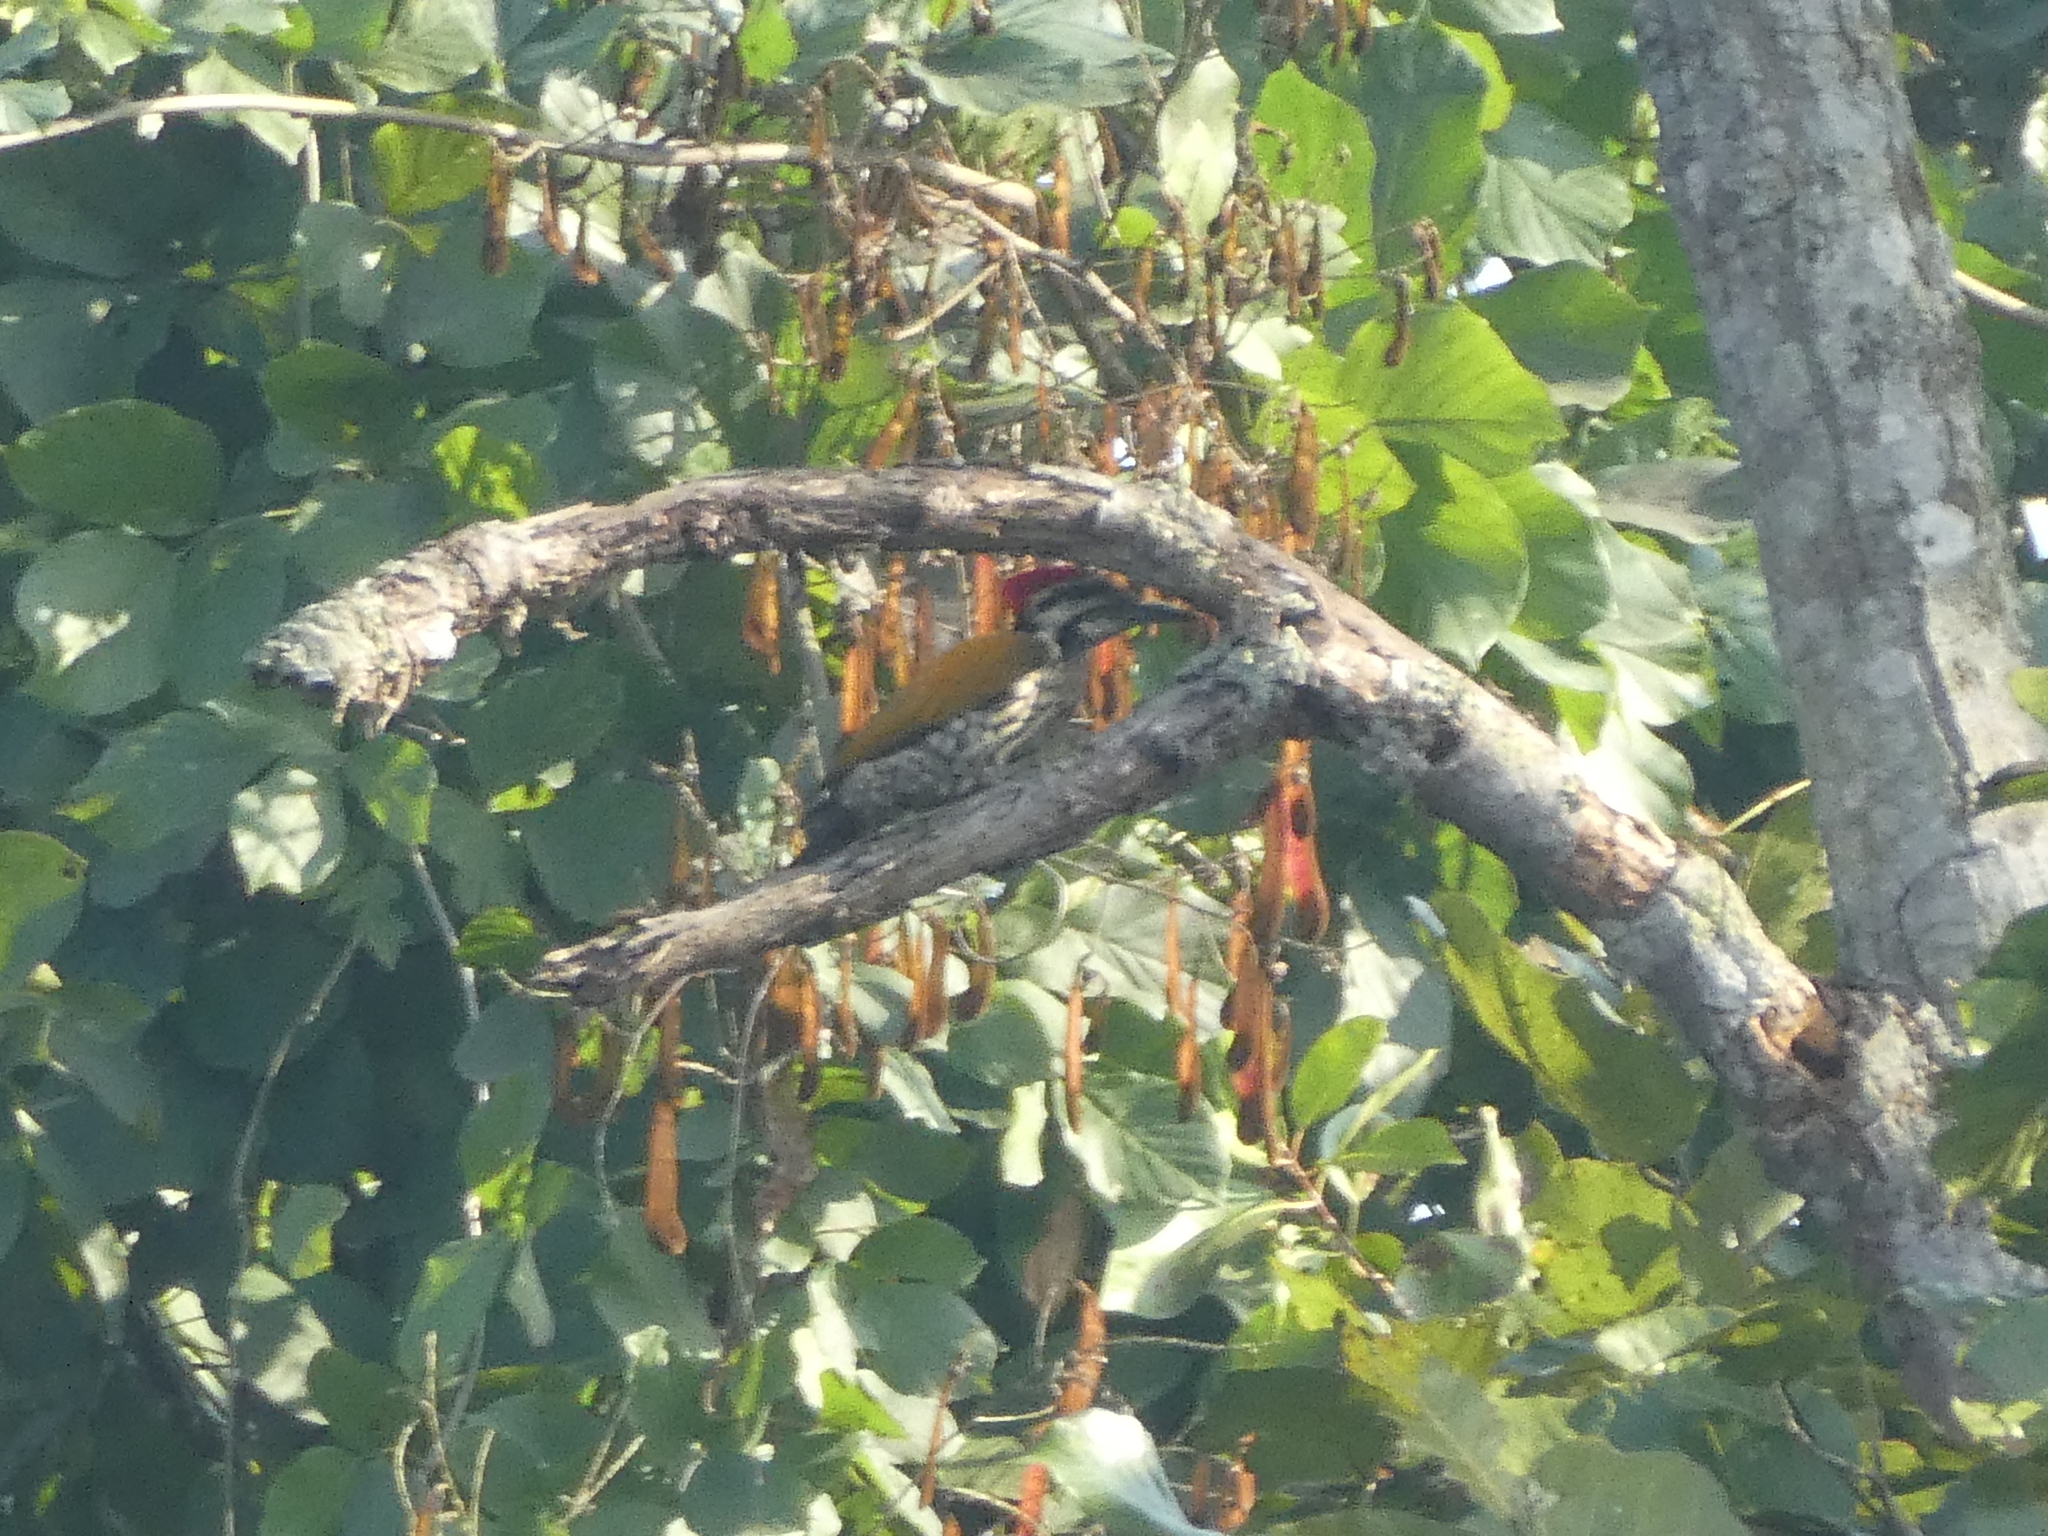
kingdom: Animalia
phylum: Chordata
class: Aves
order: Piciformes
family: Picidae
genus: Dinopium
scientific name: Dinopium shorii
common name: Himalayan flameback
